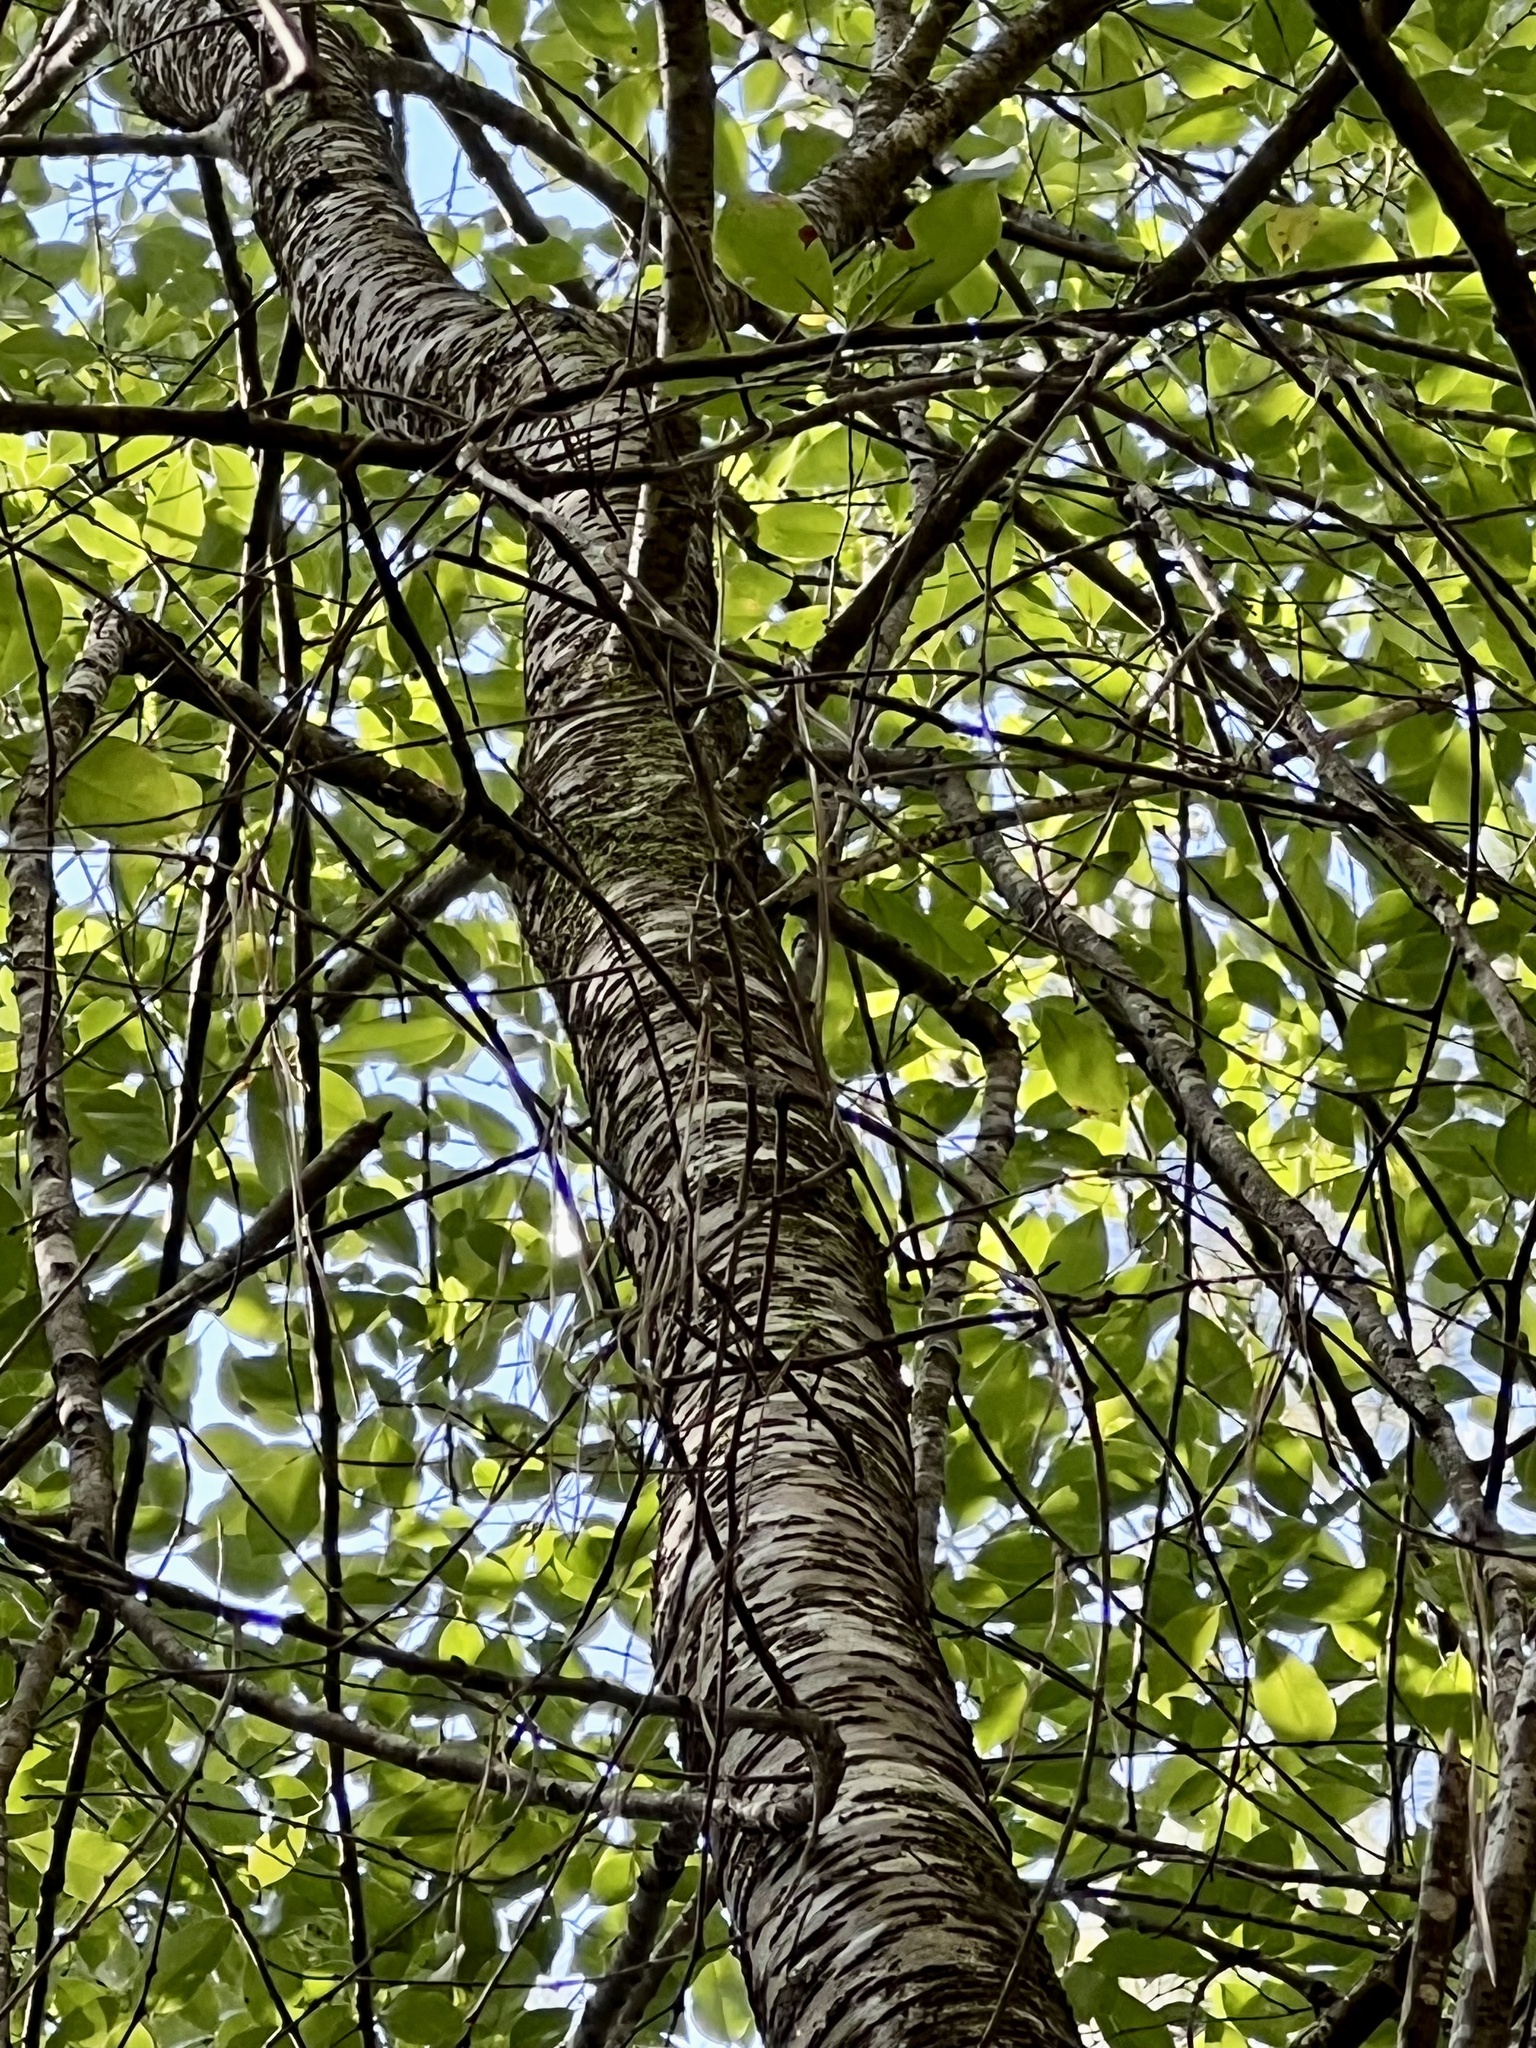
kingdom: Plantae
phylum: Tracheophyta
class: Magnoliopsida
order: Rosales
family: Rosaceae
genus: Prunus
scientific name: Prunus serotina
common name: Black cherry
